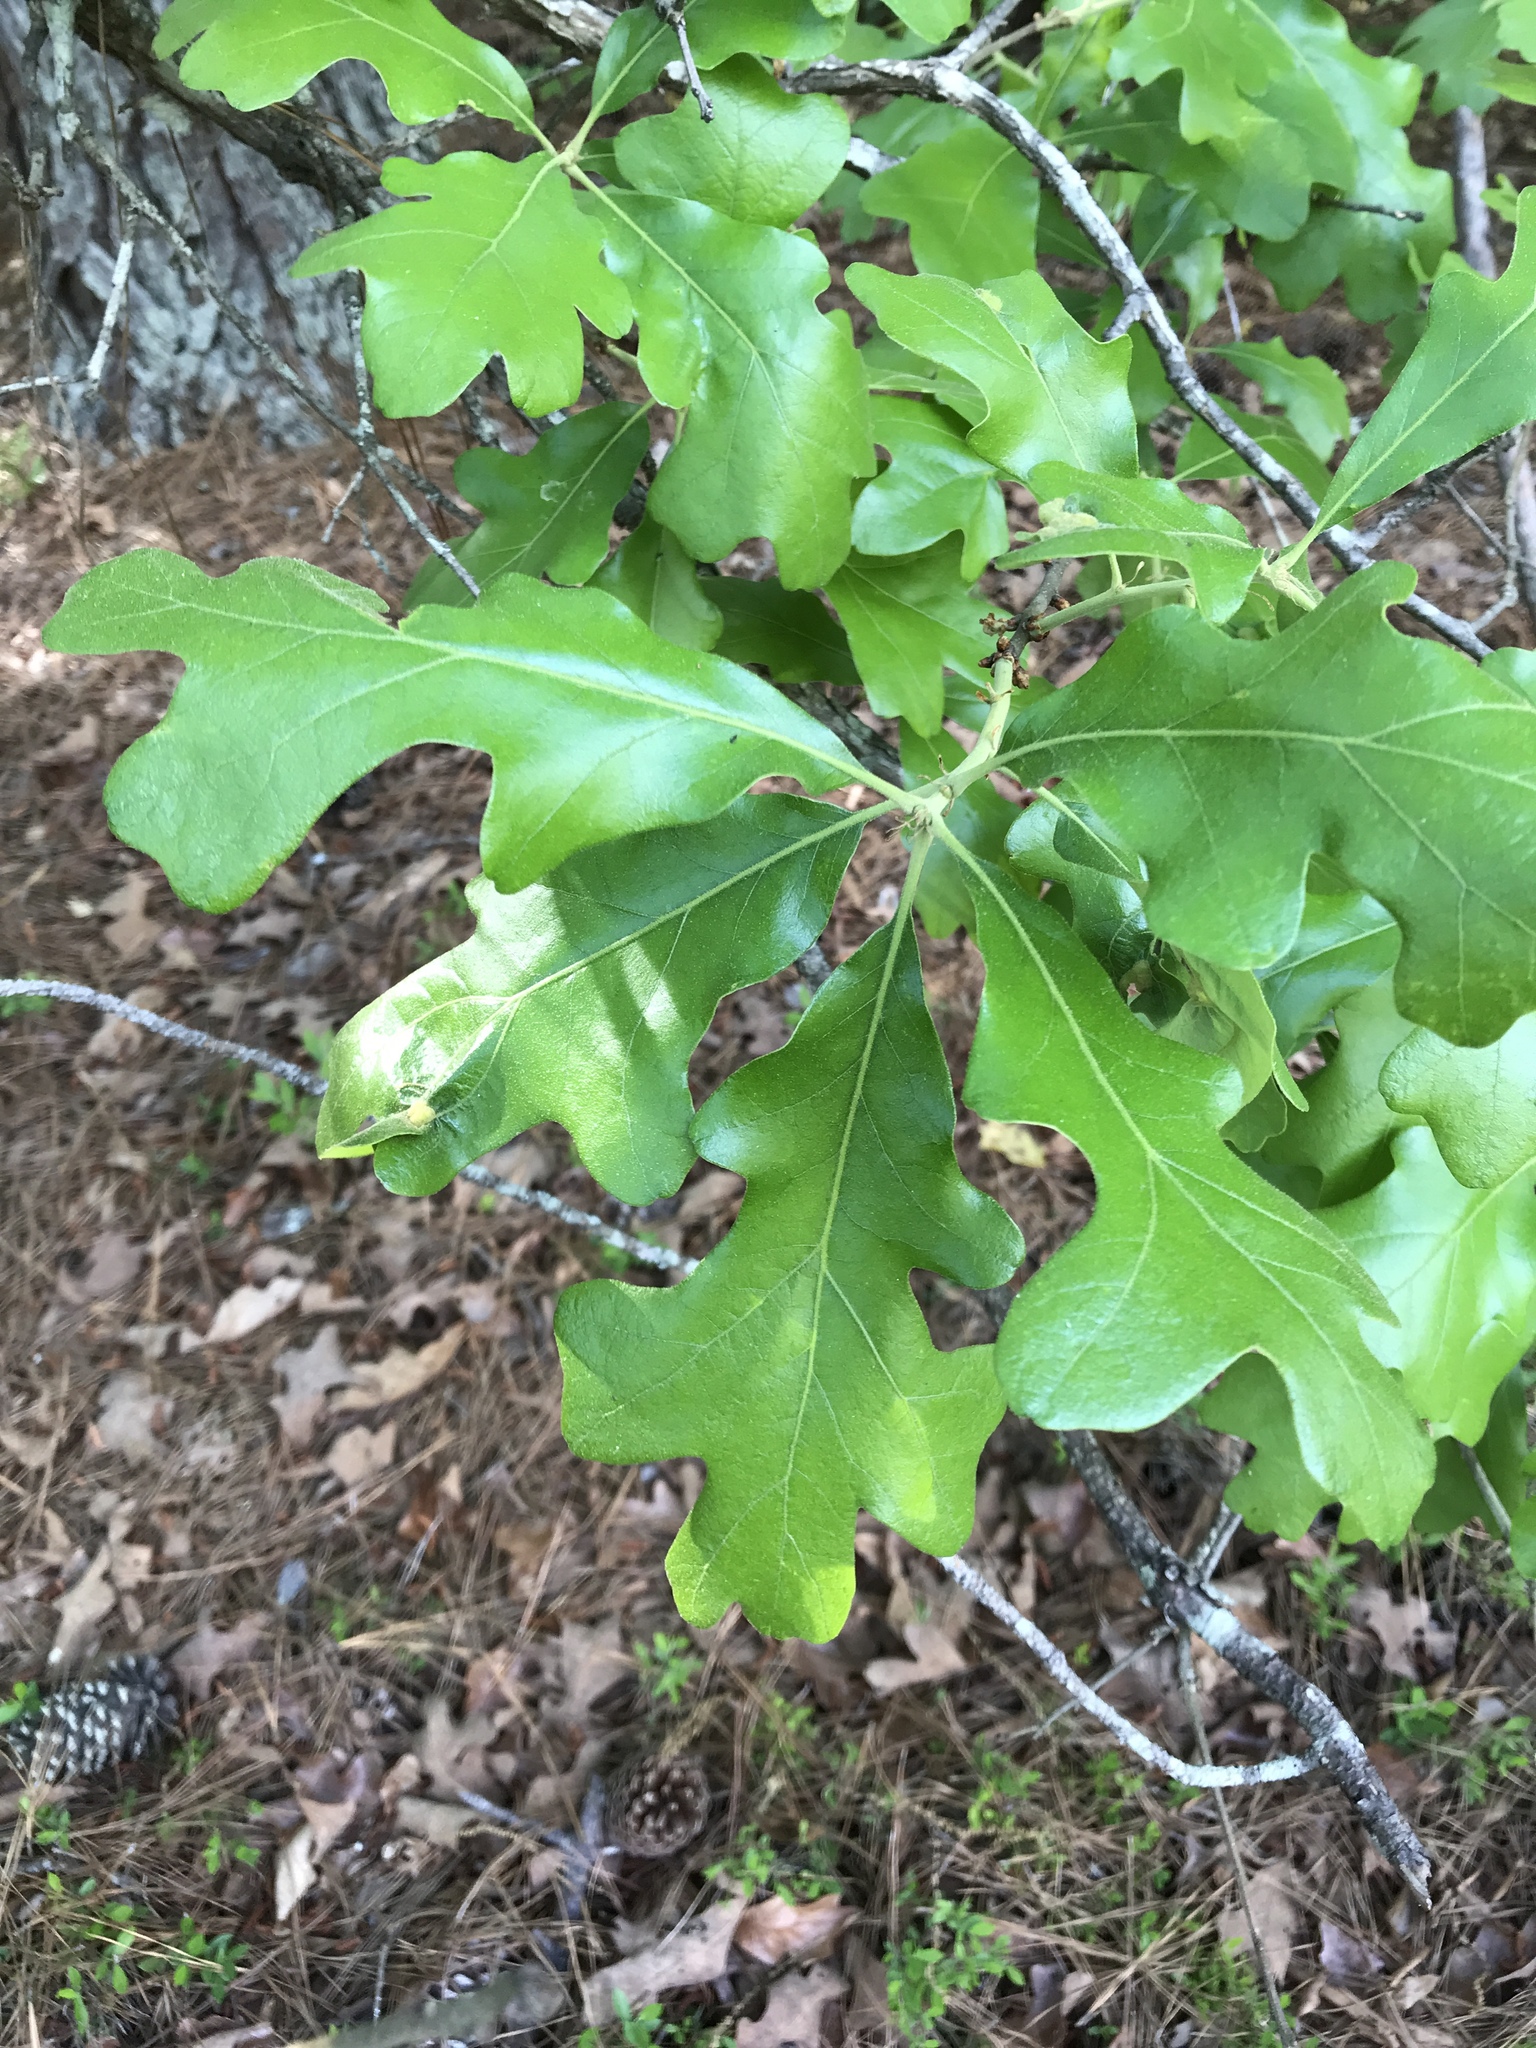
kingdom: Plantae
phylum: Tracheophyta
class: Magnoliopsida
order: Fagales
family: Fagaceae
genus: Quercus
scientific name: Quercus stellata
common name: Post oak
